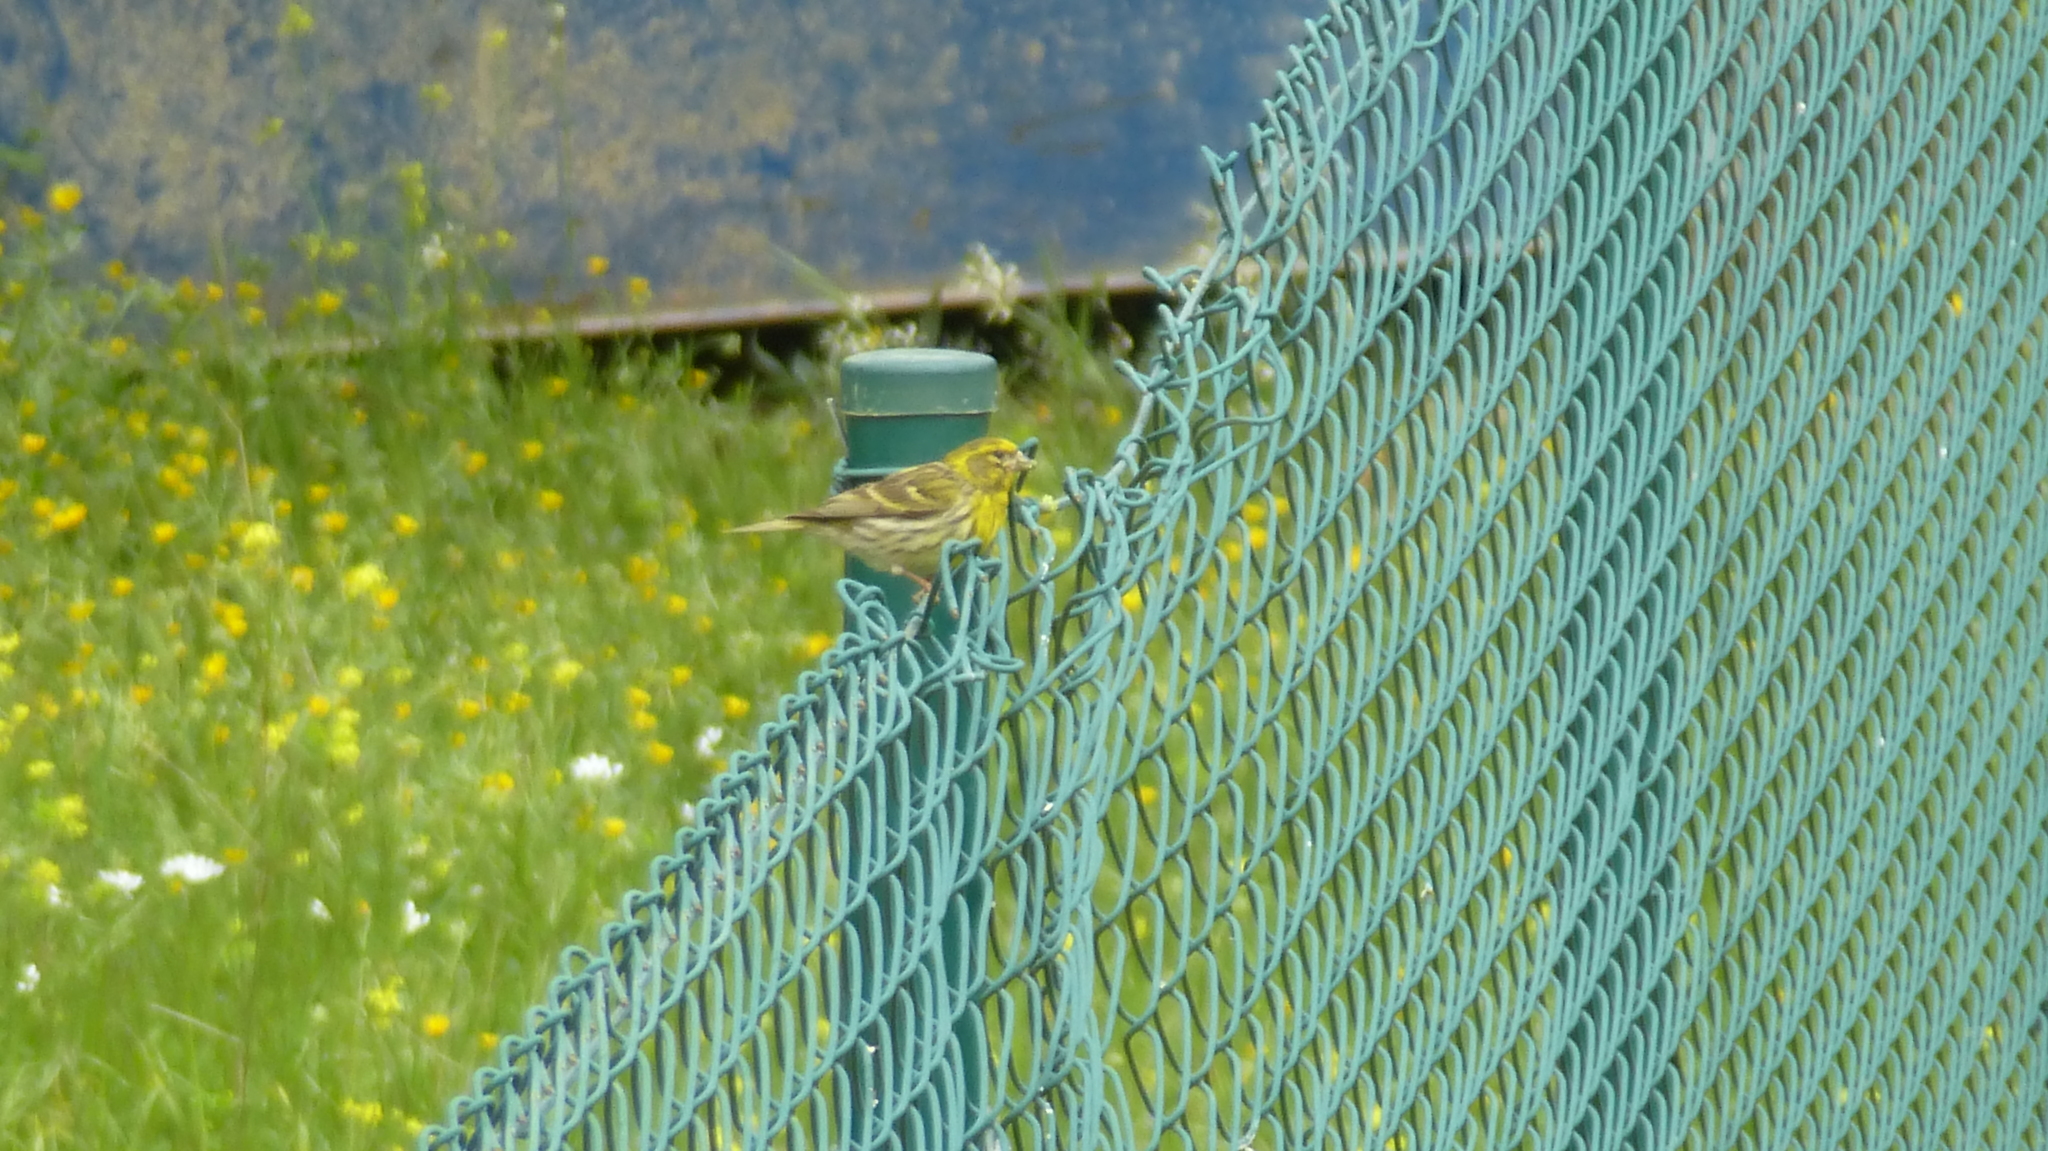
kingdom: Animalia
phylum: Chordata
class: Aves
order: Passeriformes
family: Fringillidae
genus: Serinus
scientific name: Serinus serinus
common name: European serin
